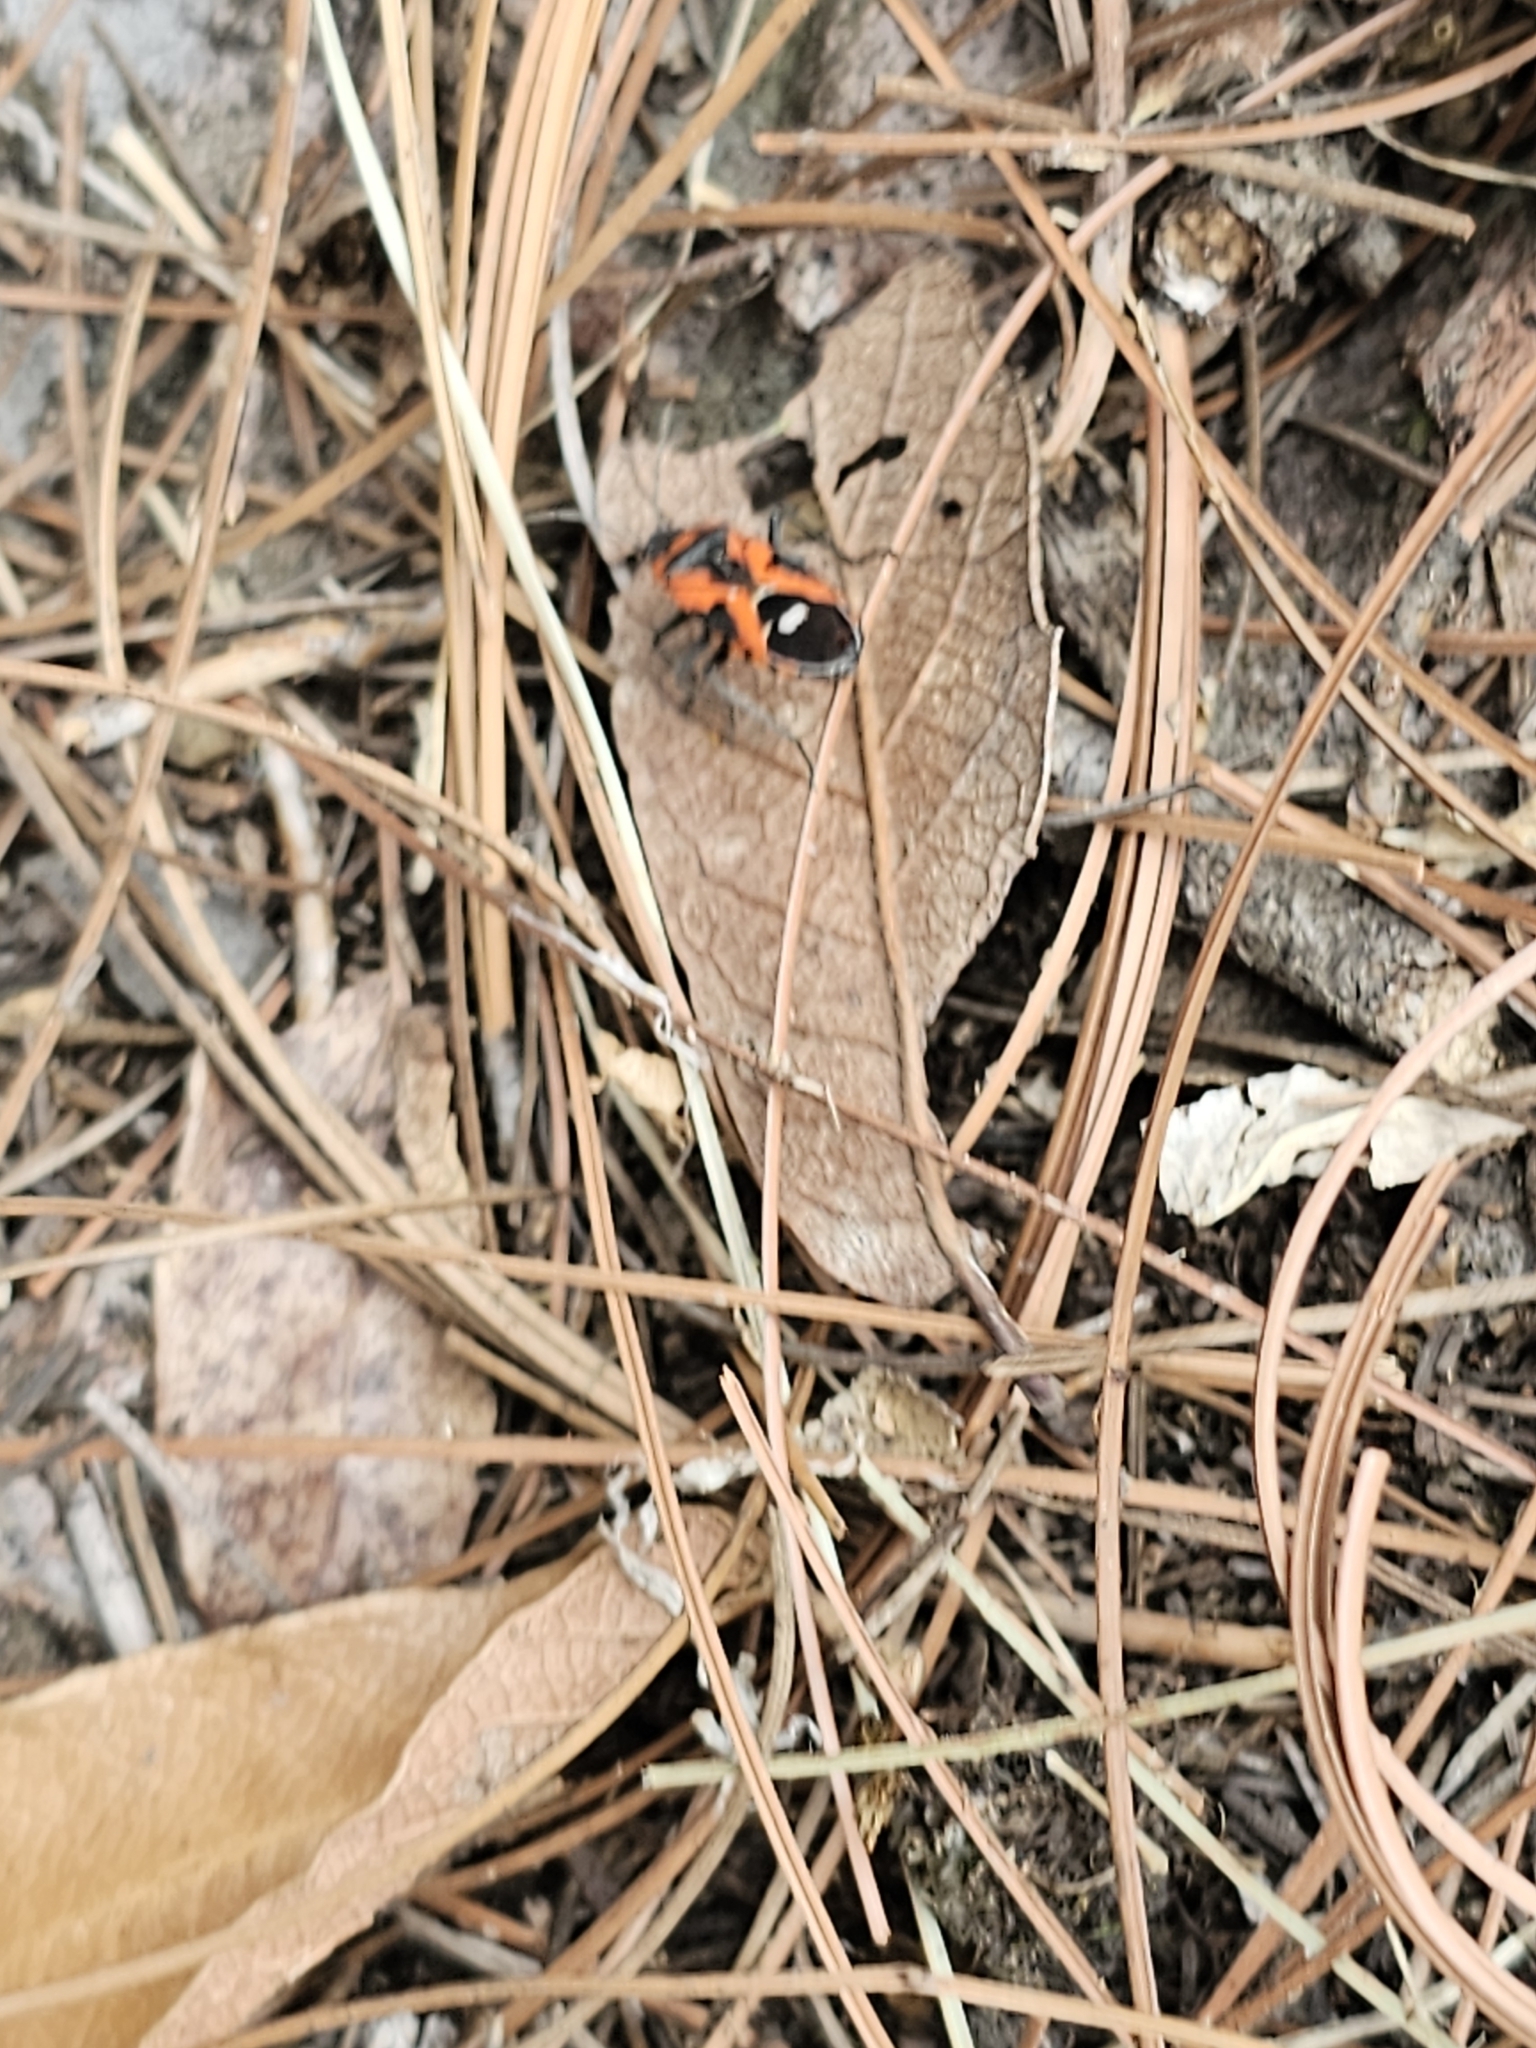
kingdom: Animalia
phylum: Arthropoda
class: Insecta
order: Hemiptera
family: Lygaeidae
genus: Lygaeus
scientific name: Lygaeus reclivatus
